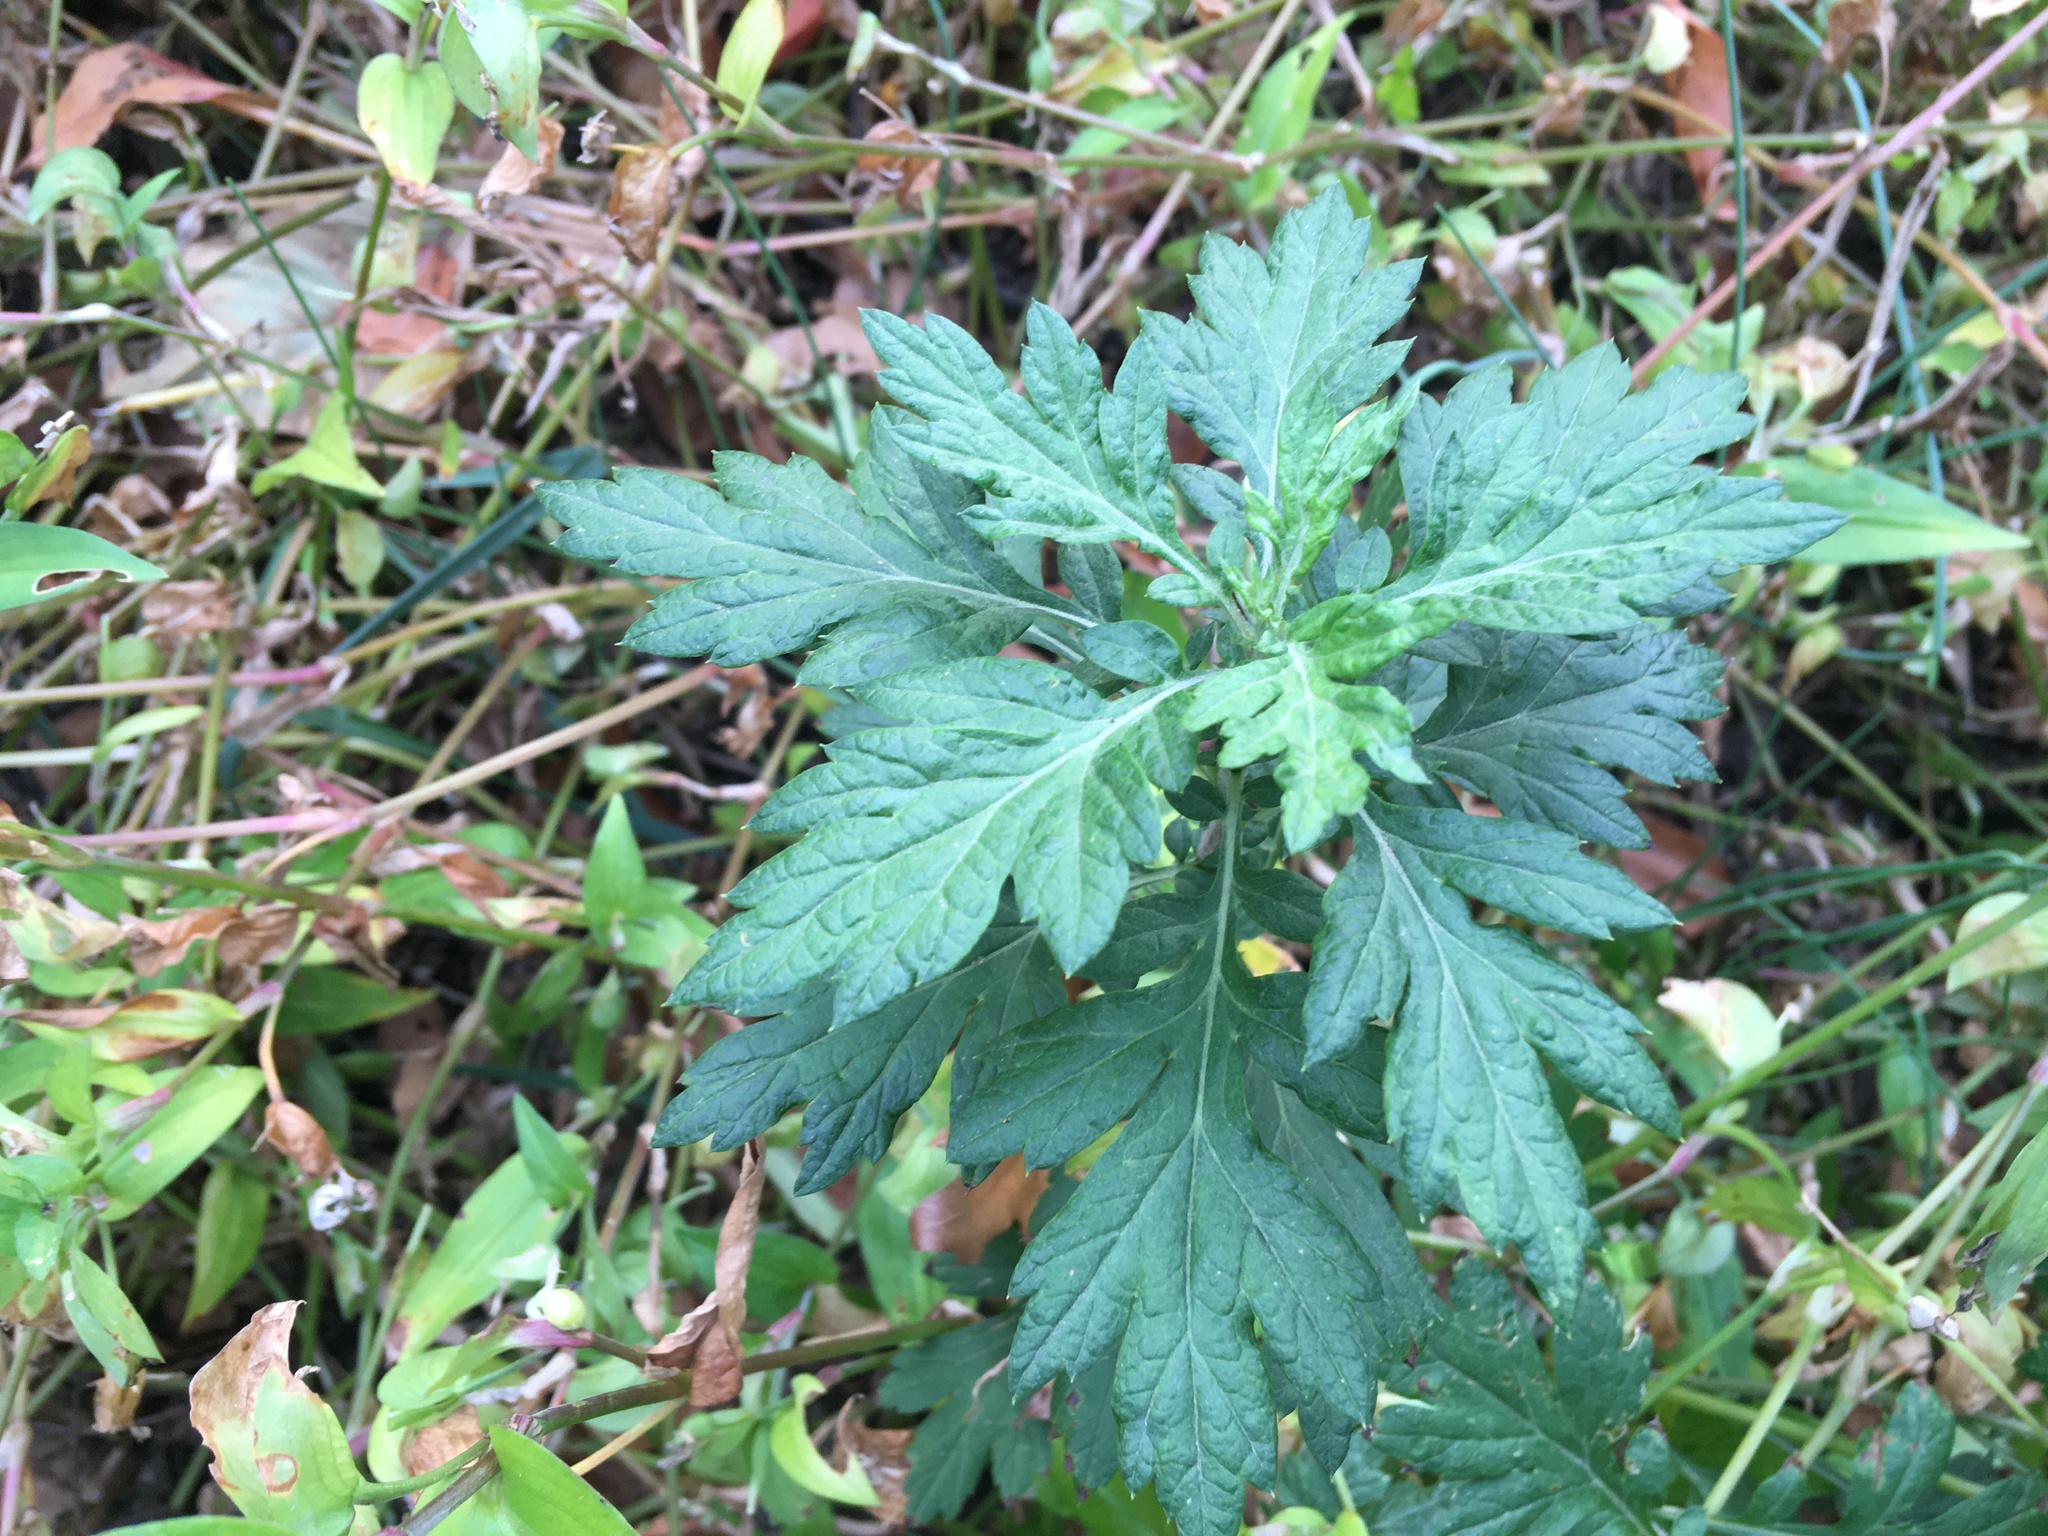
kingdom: Plantae
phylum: Tracheophyta
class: Magnoliopsida
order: Asterales
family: Asteraceae
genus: Artemisia
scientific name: Artemisia vulgaris
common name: Mugwort
